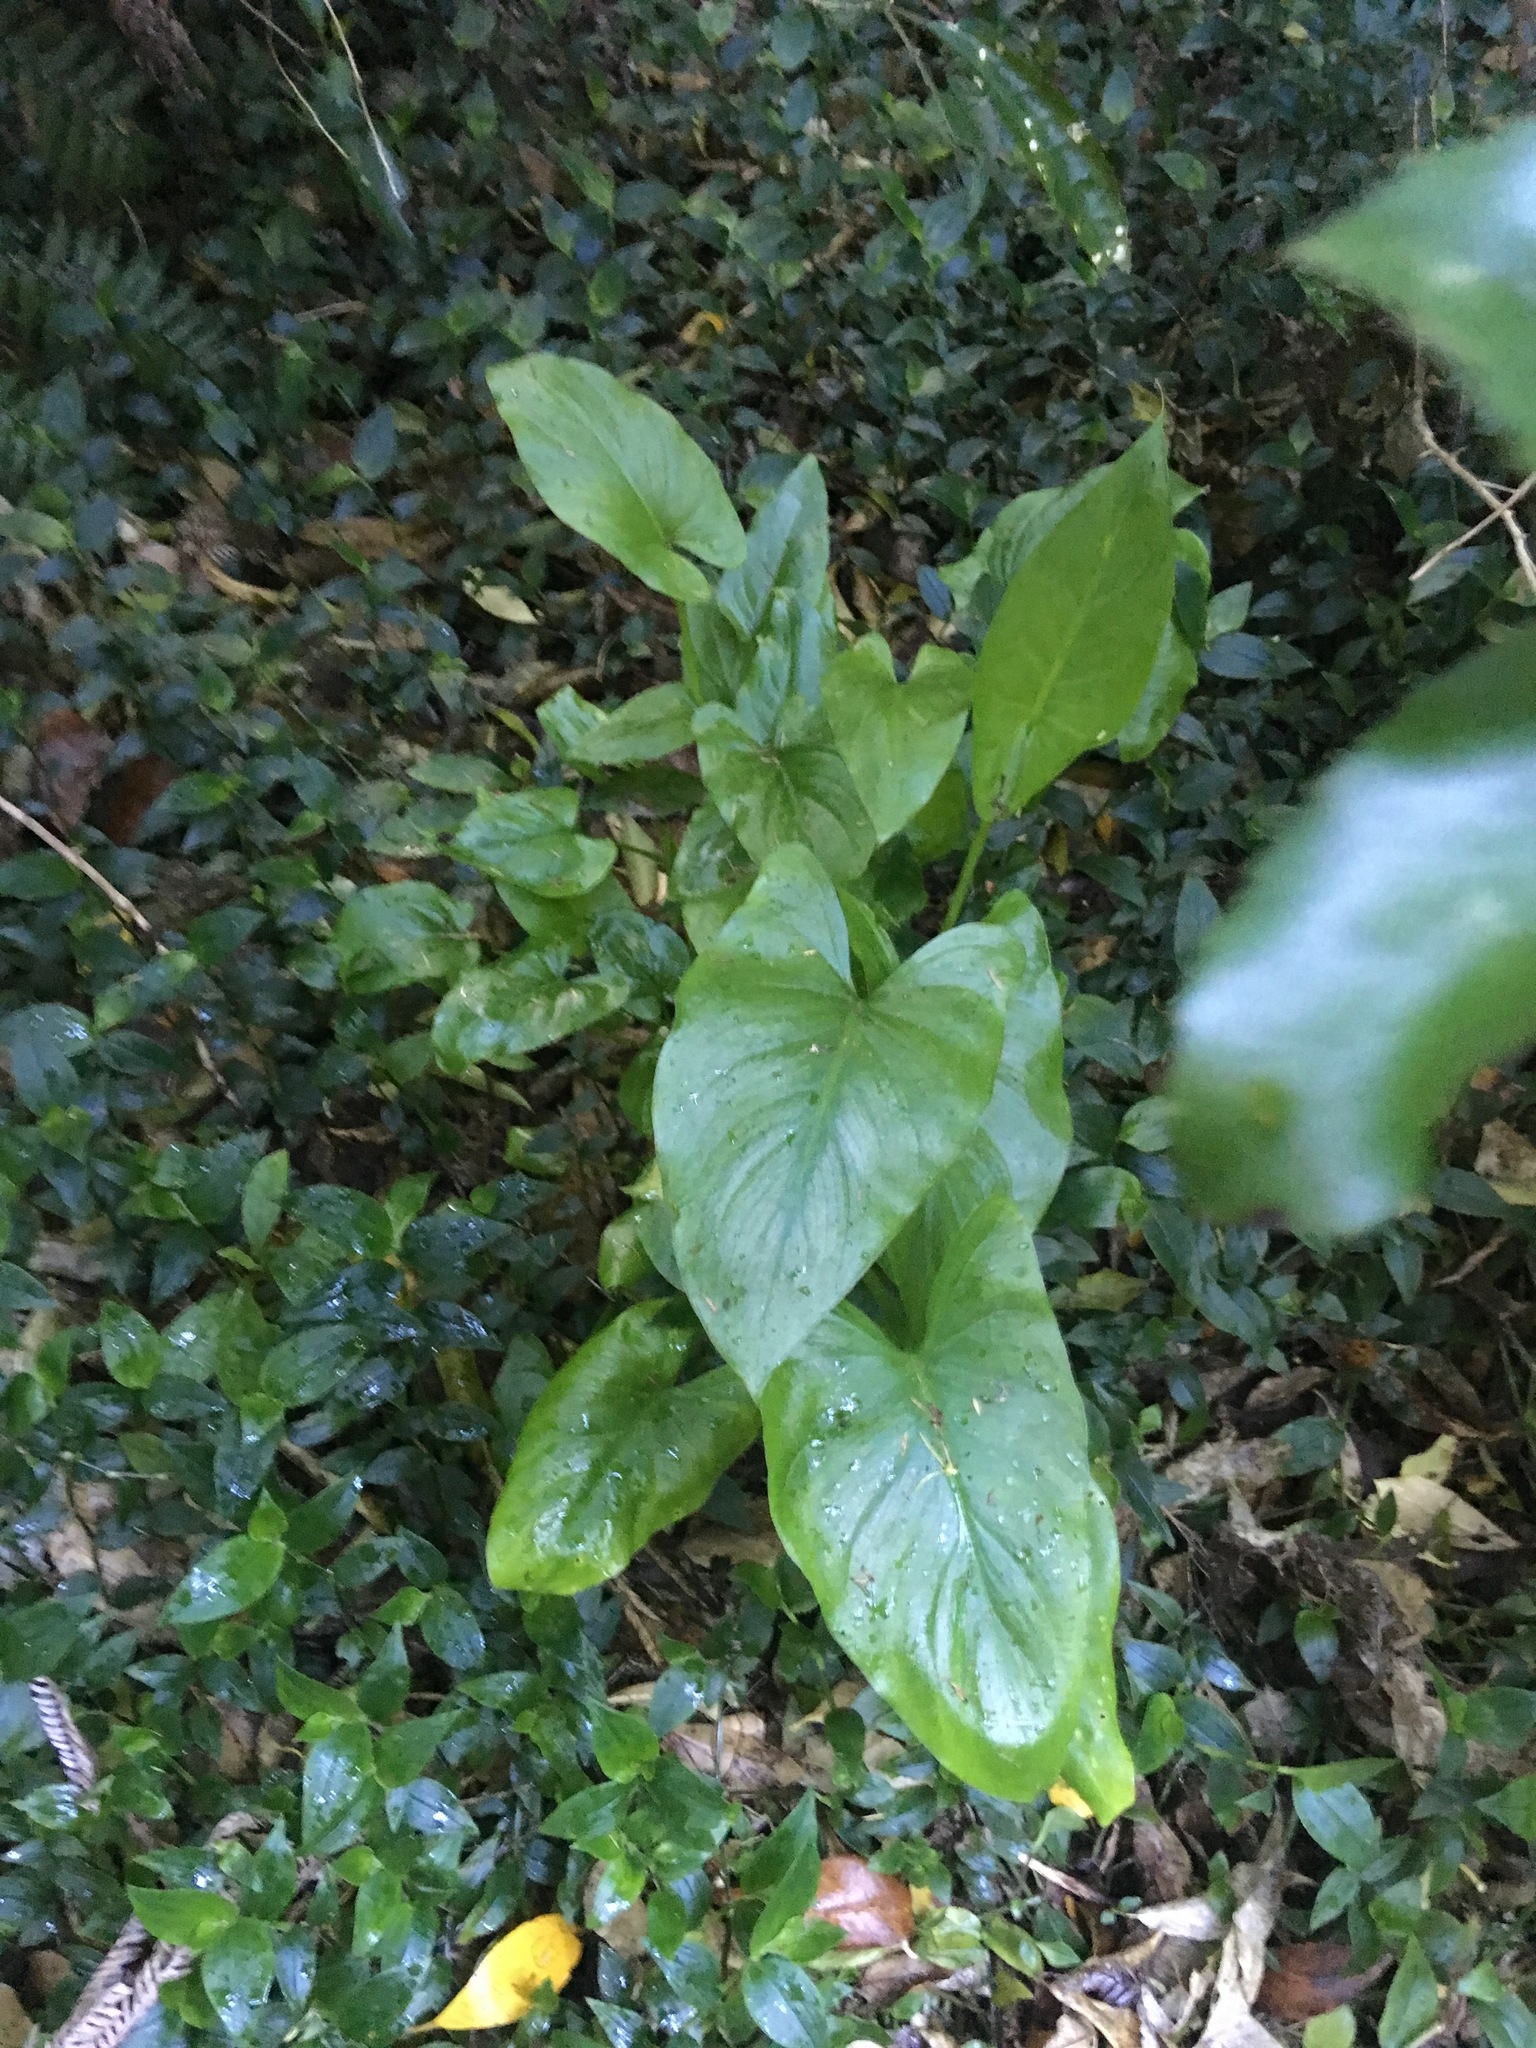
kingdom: Plantae
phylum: Tracheophyta
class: Liliopsida
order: Alismatales
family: Araceae
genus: Zantedeschia
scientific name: Zantedeschia aethiopica
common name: Altar-lily
